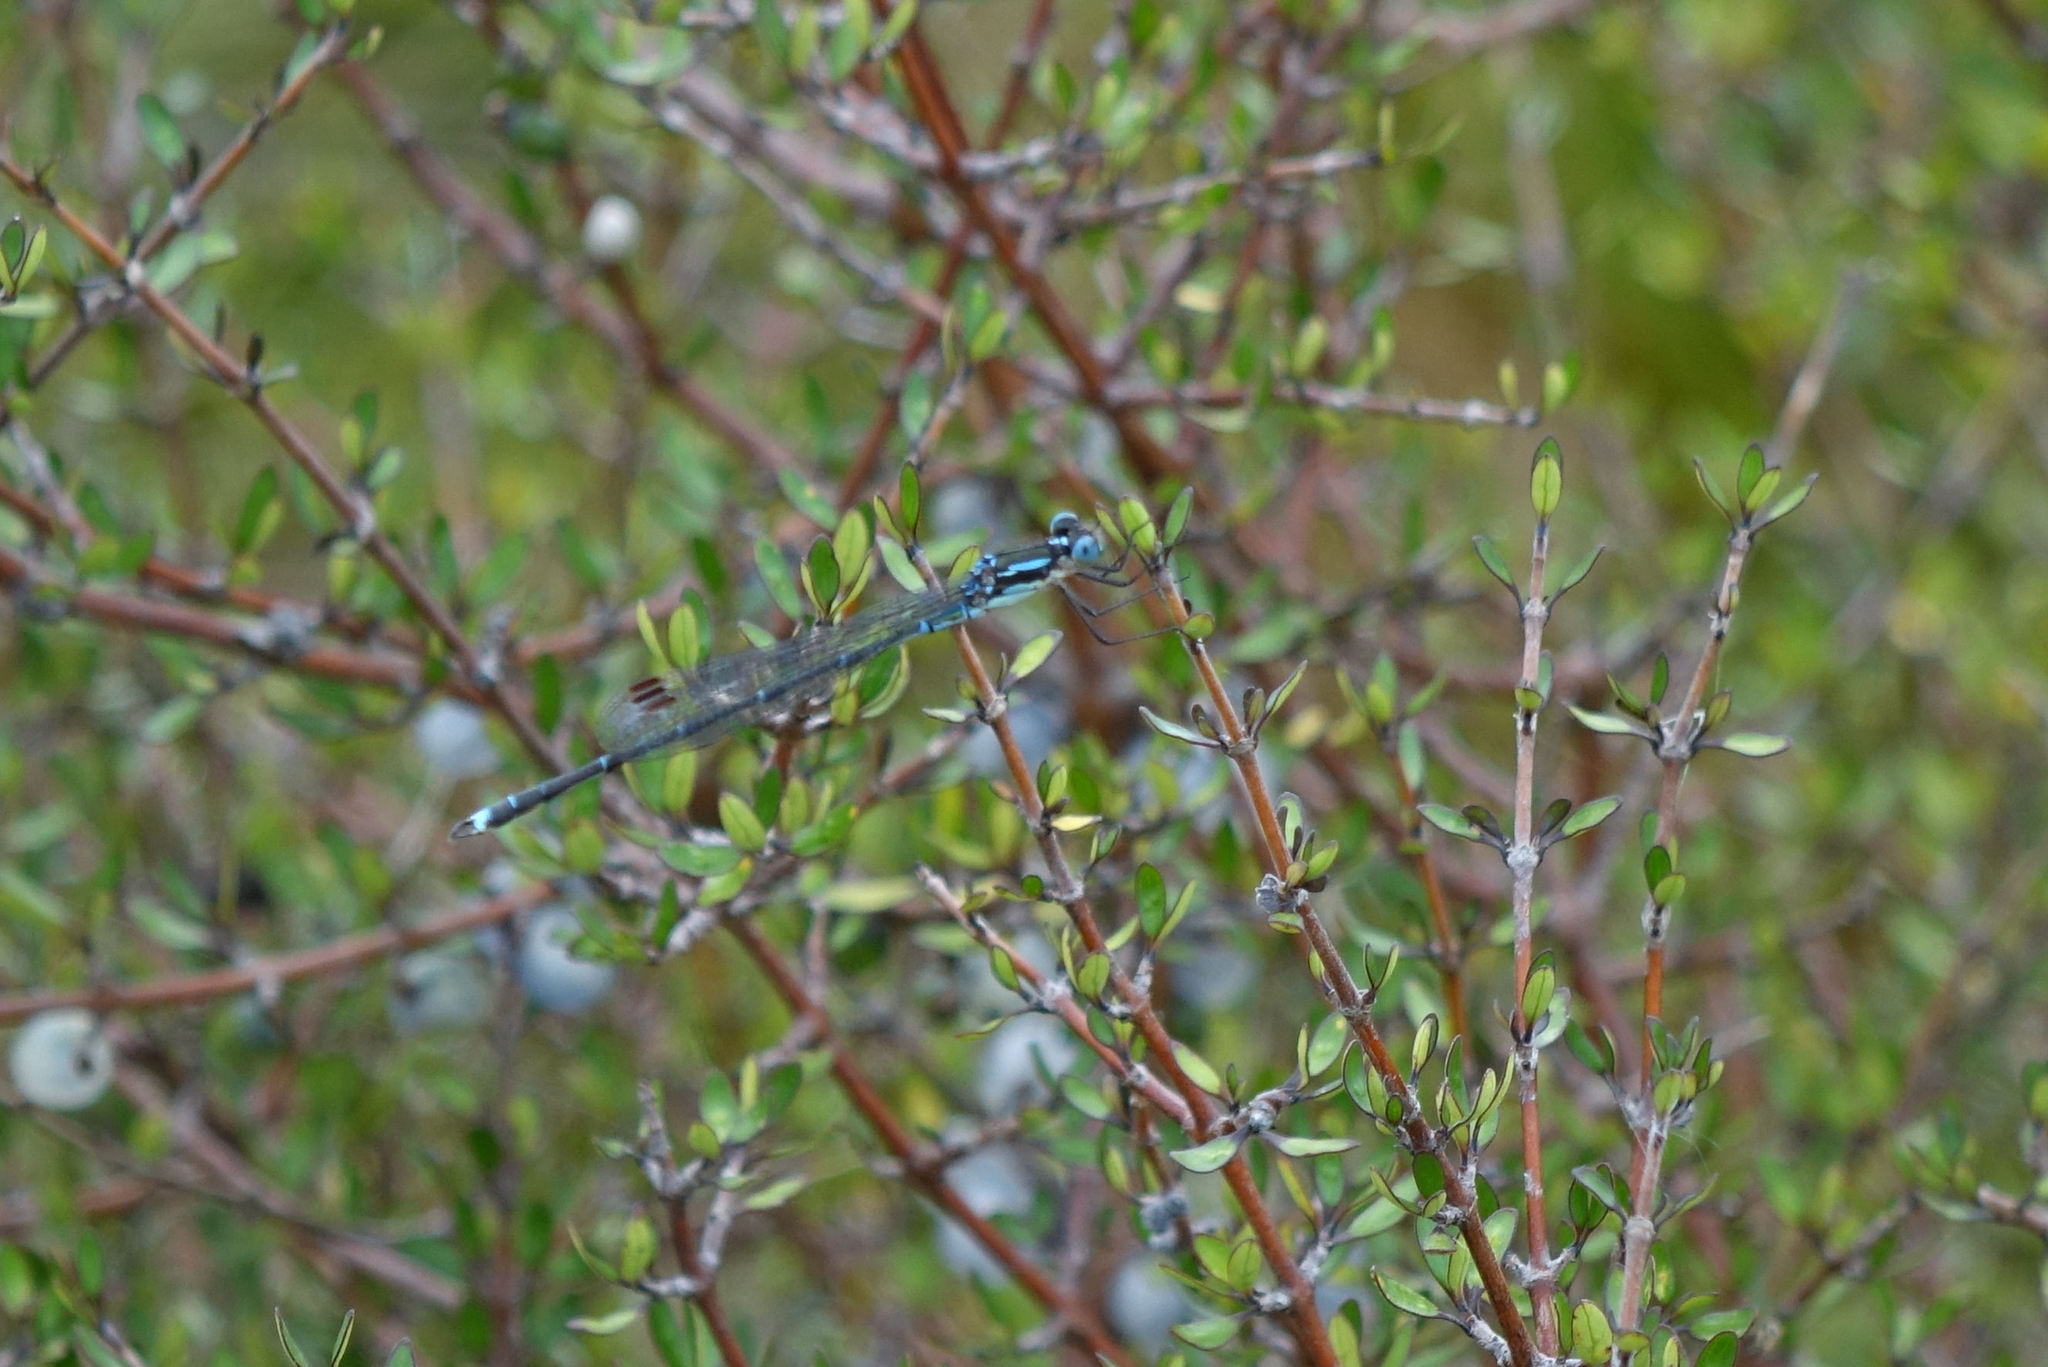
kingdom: Animalia
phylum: Arthropoda
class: Insecta
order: Odonata
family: Lestidae
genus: Austrolestes
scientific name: Austrolestes colensonis
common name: Blue damselfly
